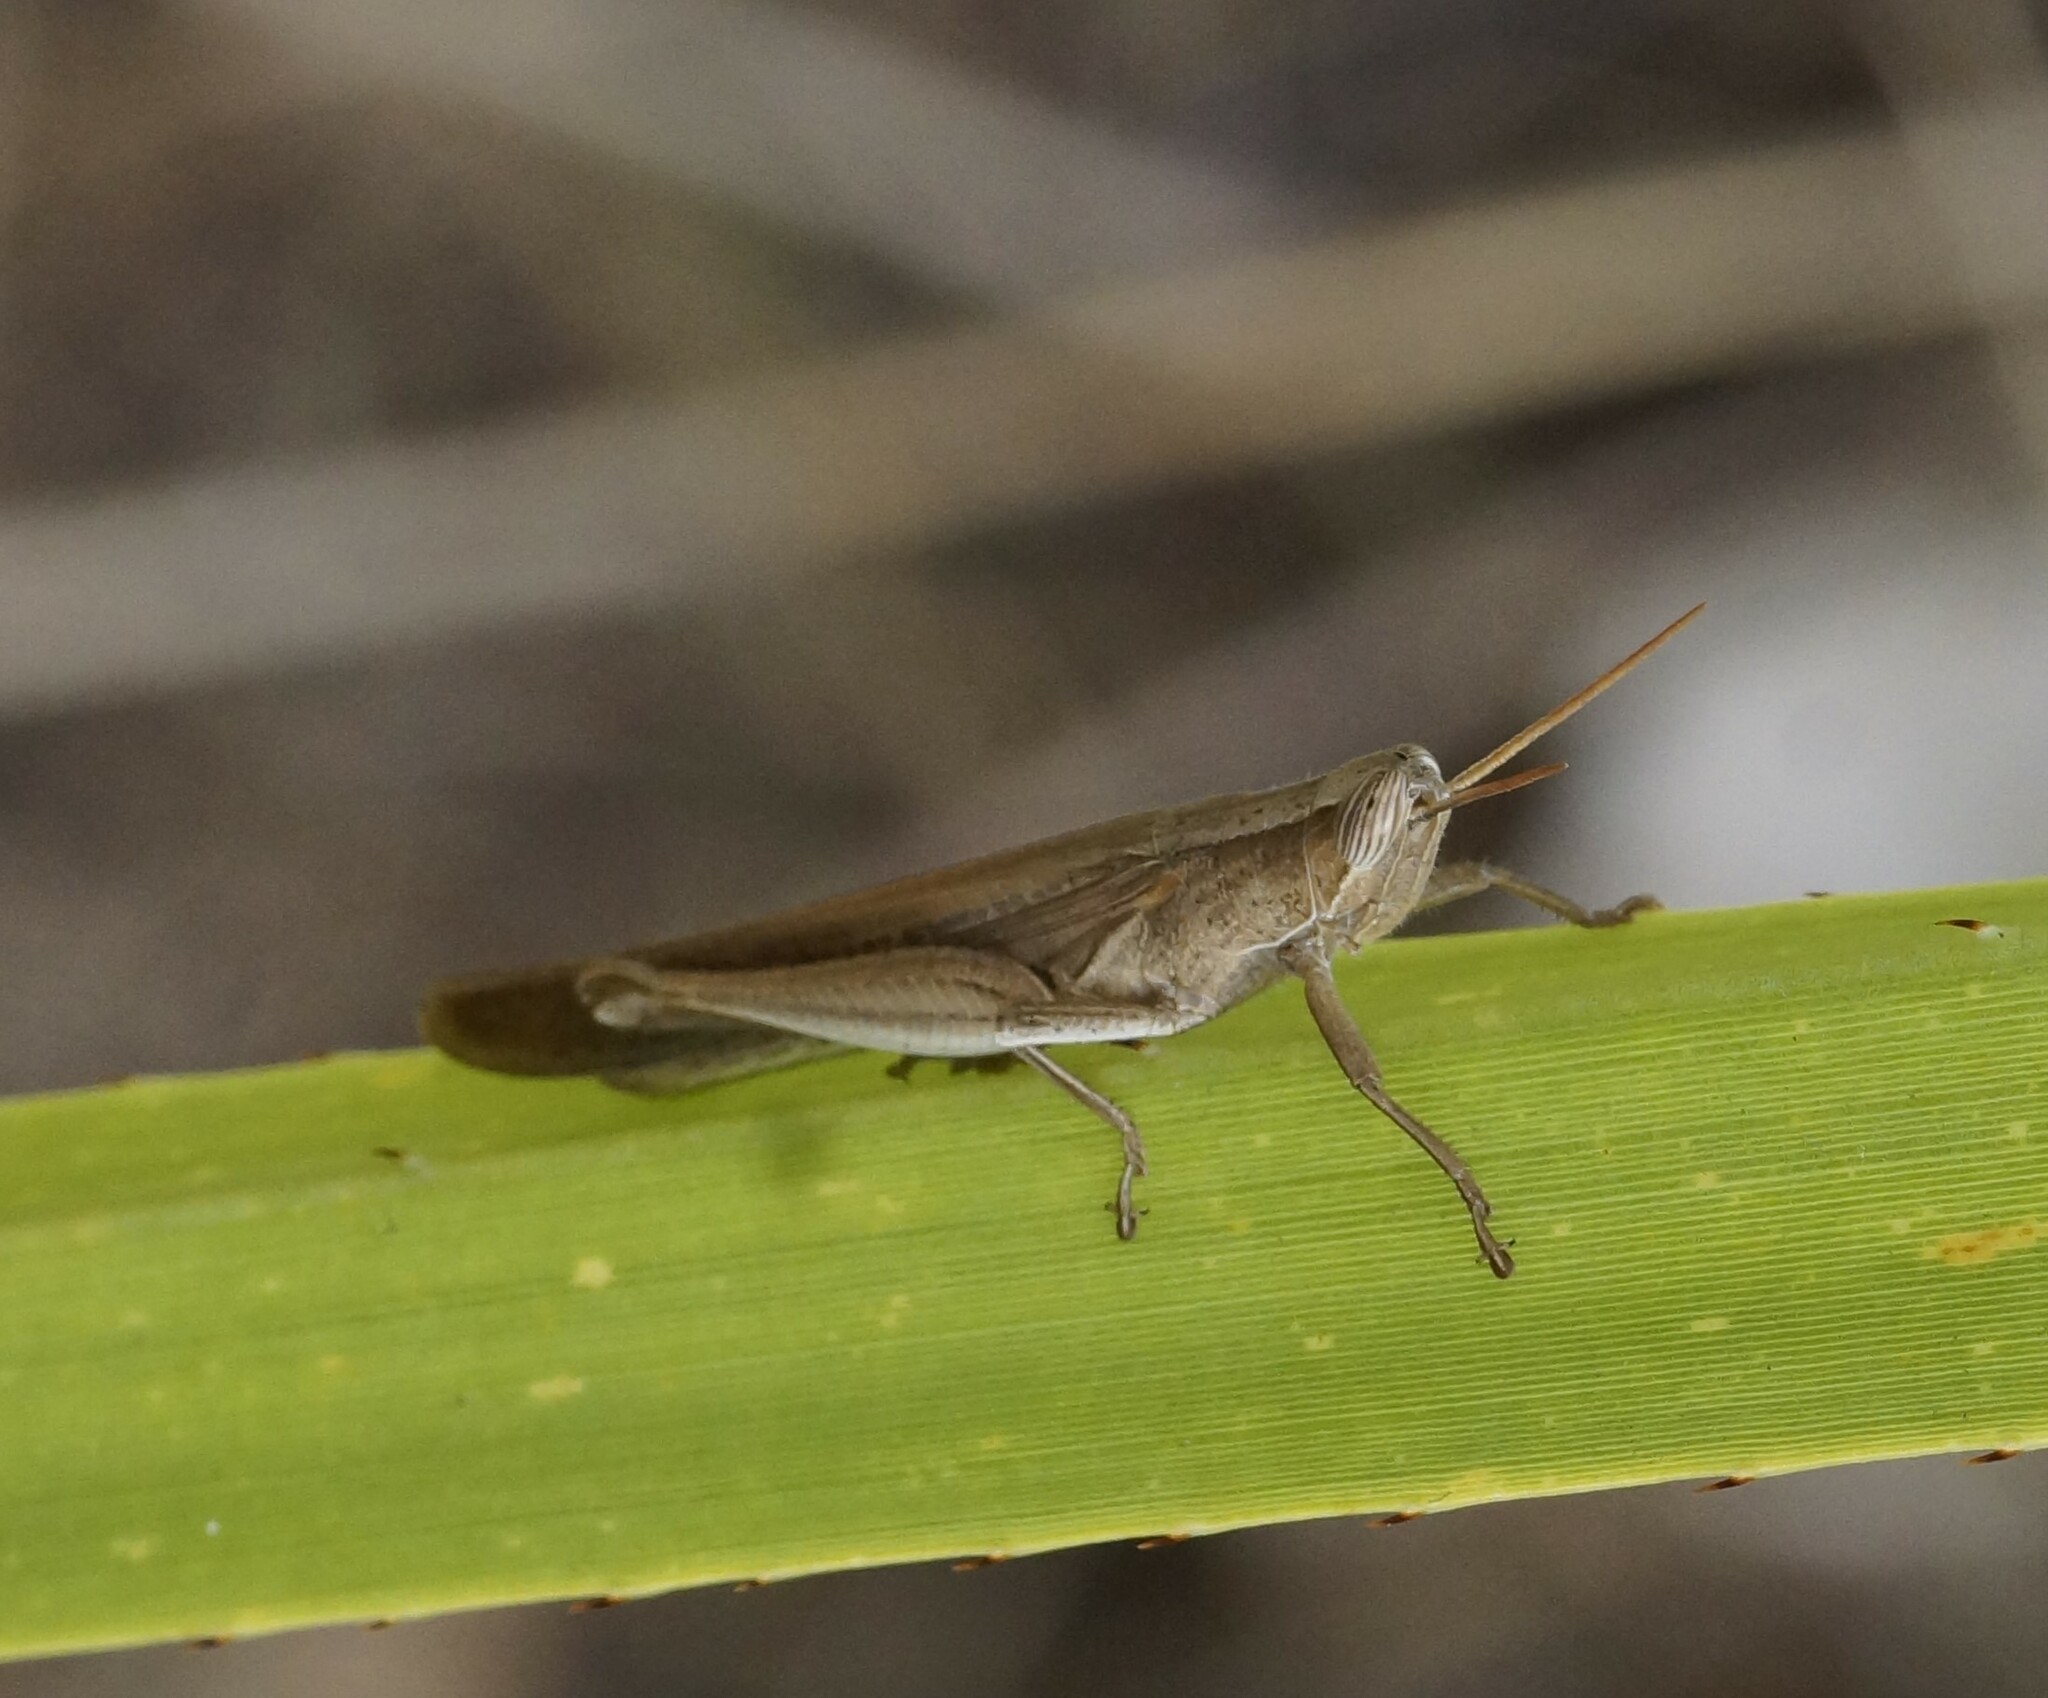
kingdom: Animalia
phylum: Arthropoda
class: Insecta
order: Orthoptera
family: Acrididae
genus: Stenocatantops
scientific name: Stenocatantops vitripennis
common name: Light-brown sharptail
